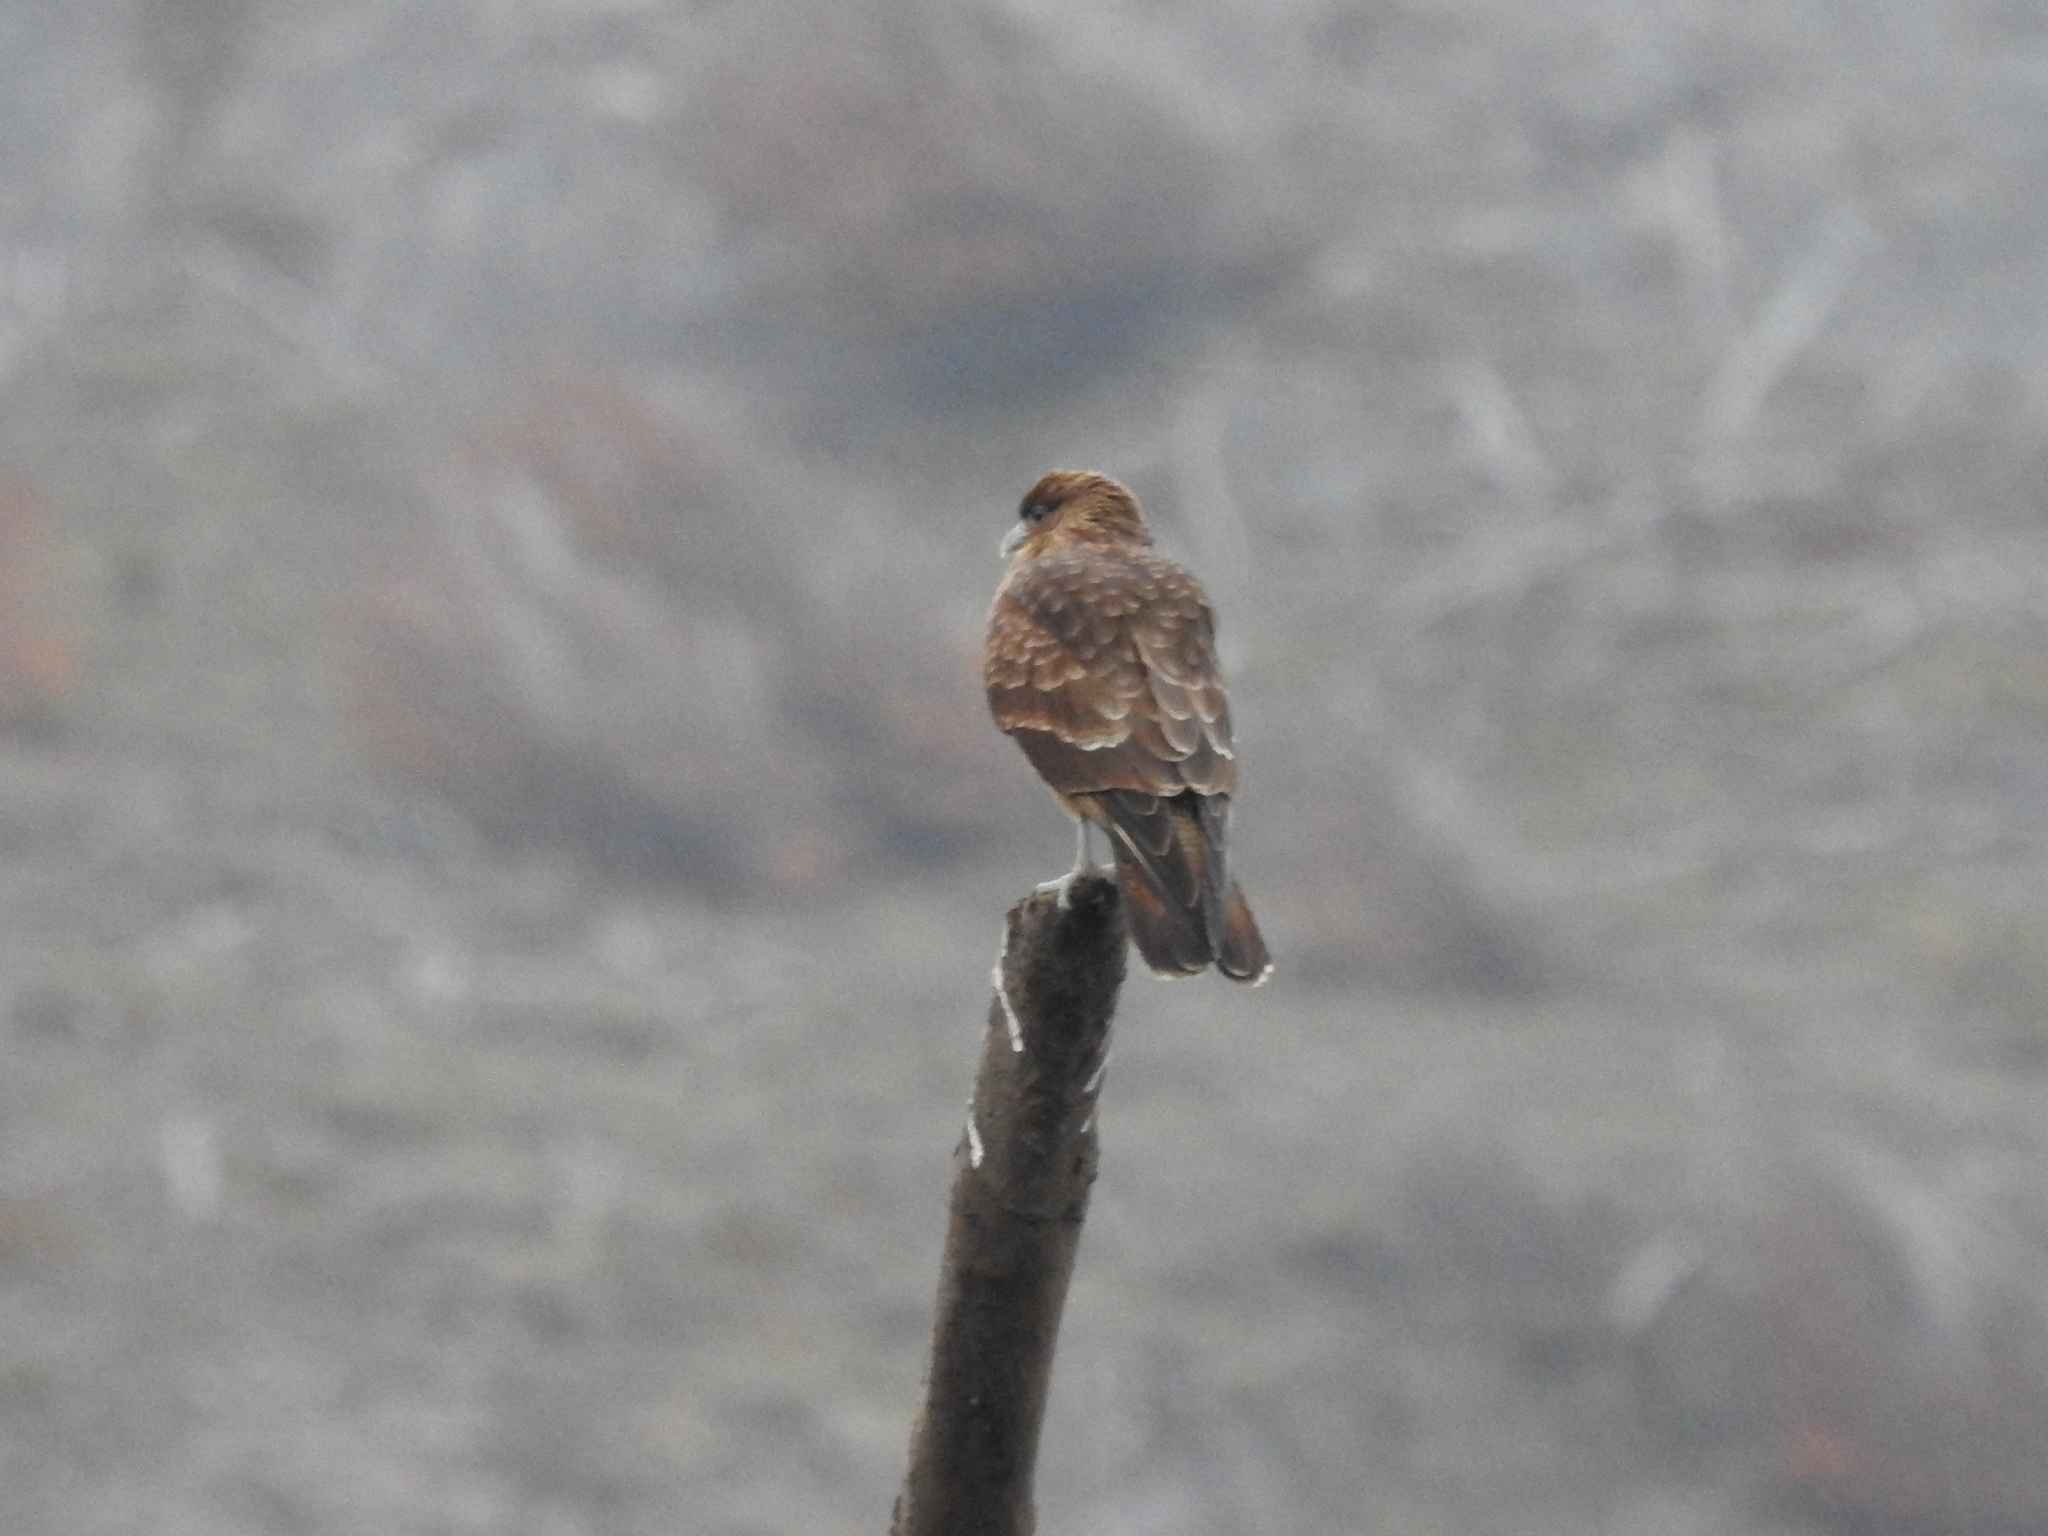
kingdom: Animalia
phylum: Chordata
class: Aves
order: Falconiformes
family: Falconidae
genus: Daptrius
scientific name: Daptrius
